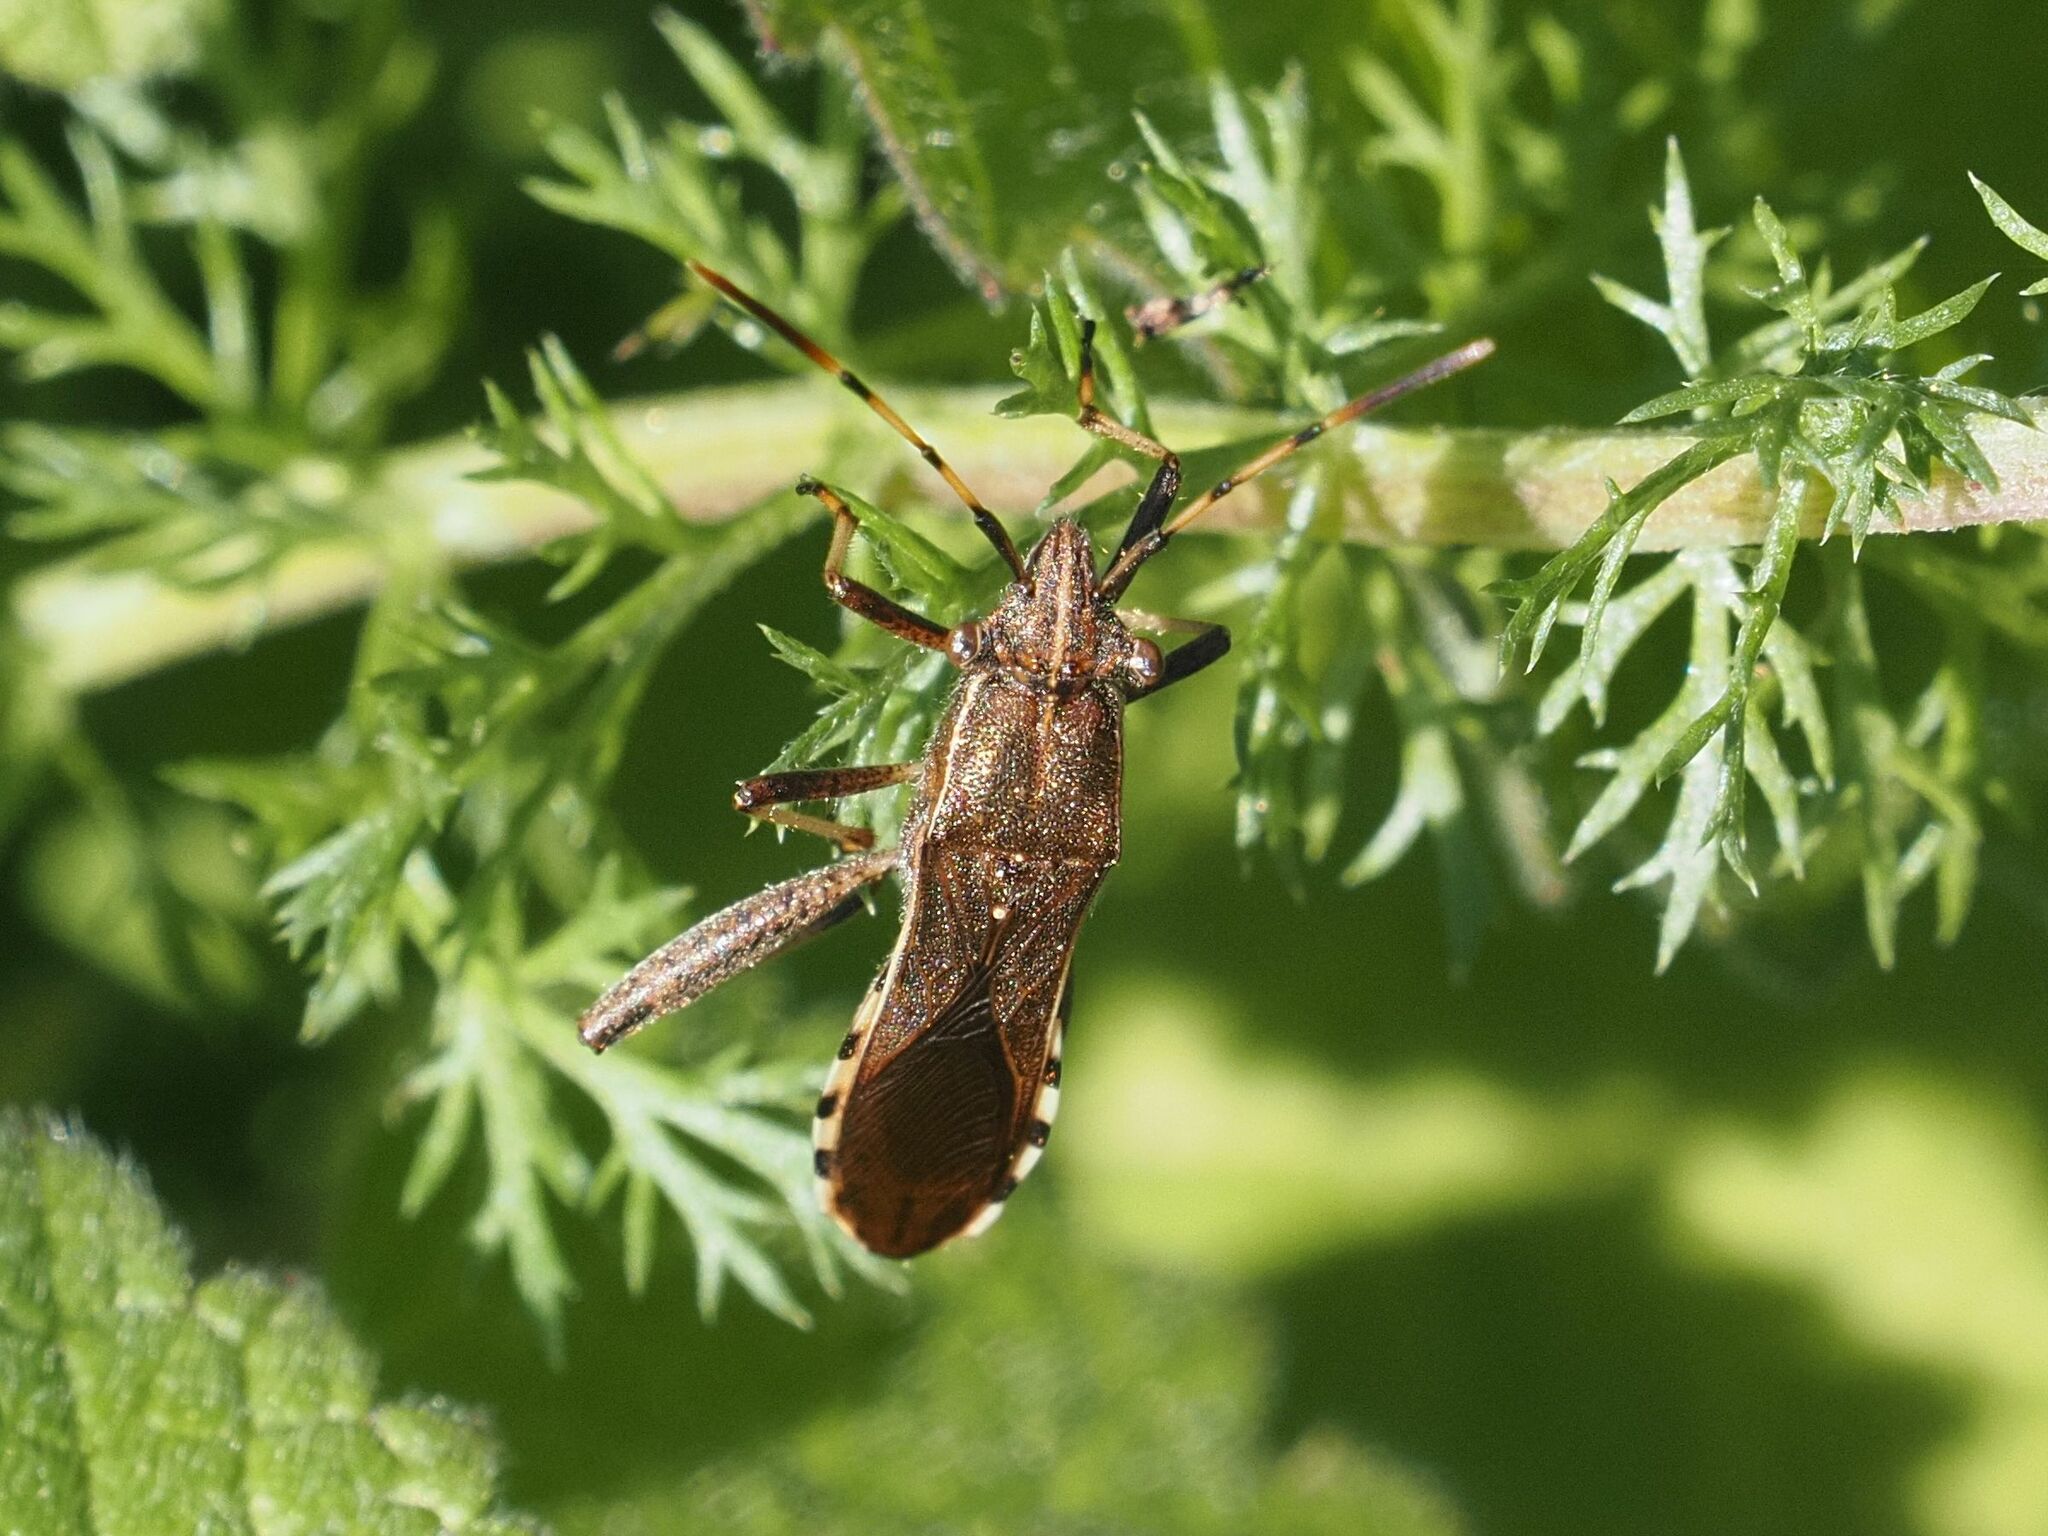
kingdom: Animalia
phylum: Arthropoda
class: Insecta
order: Hemiptera
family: Alydidae
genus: Camptopus
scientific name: Camptopus lateralis
